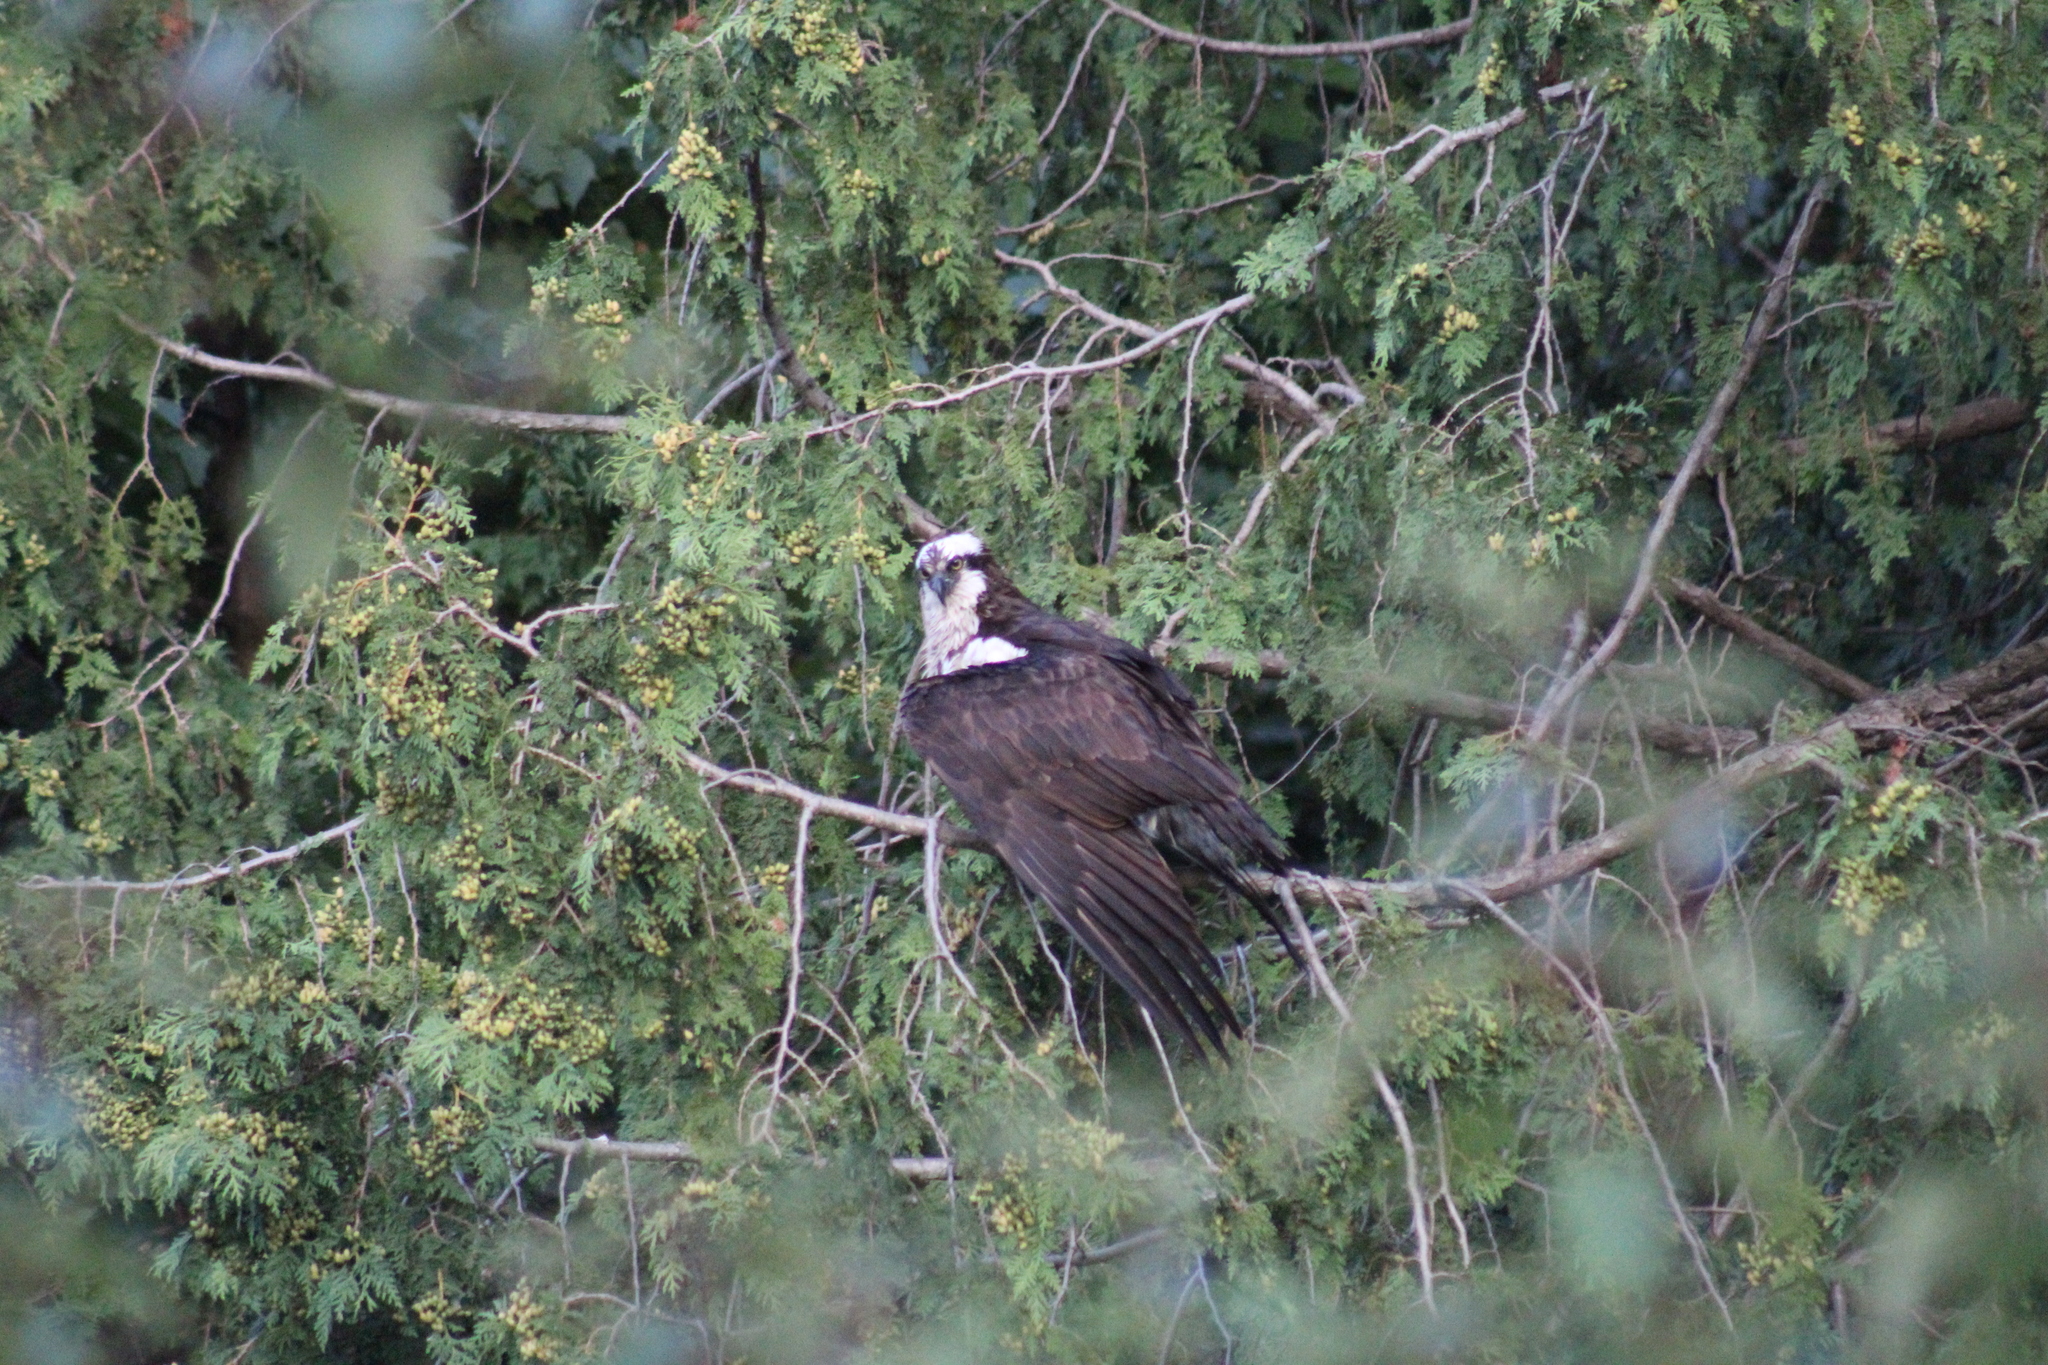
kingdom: Animalia
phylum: Chordata
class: Aves
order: Accipitriformes
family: Pandionidae
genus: Pandion
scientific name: Pandion haliaetus
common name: Osprey
